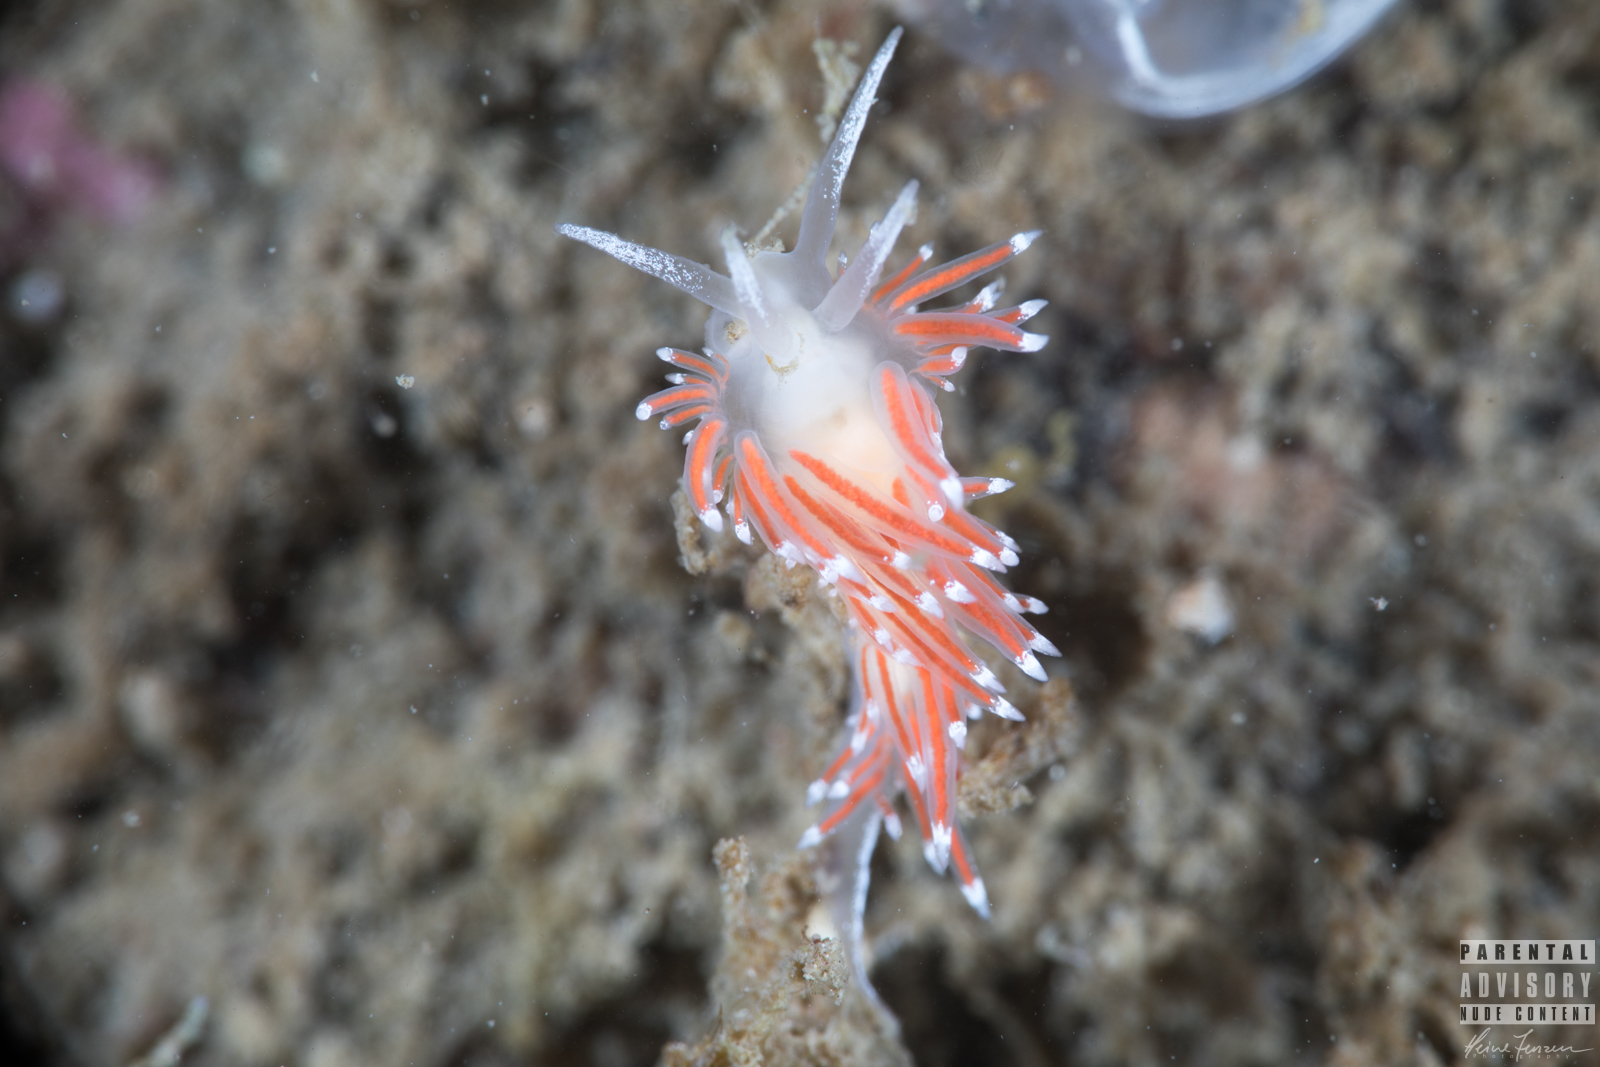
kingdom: Animalia
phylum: Mollusca
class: Gastropoda
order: Nudibranchia
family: Coryphellidae
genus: Coryphella
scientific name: Coryphella gracilis
